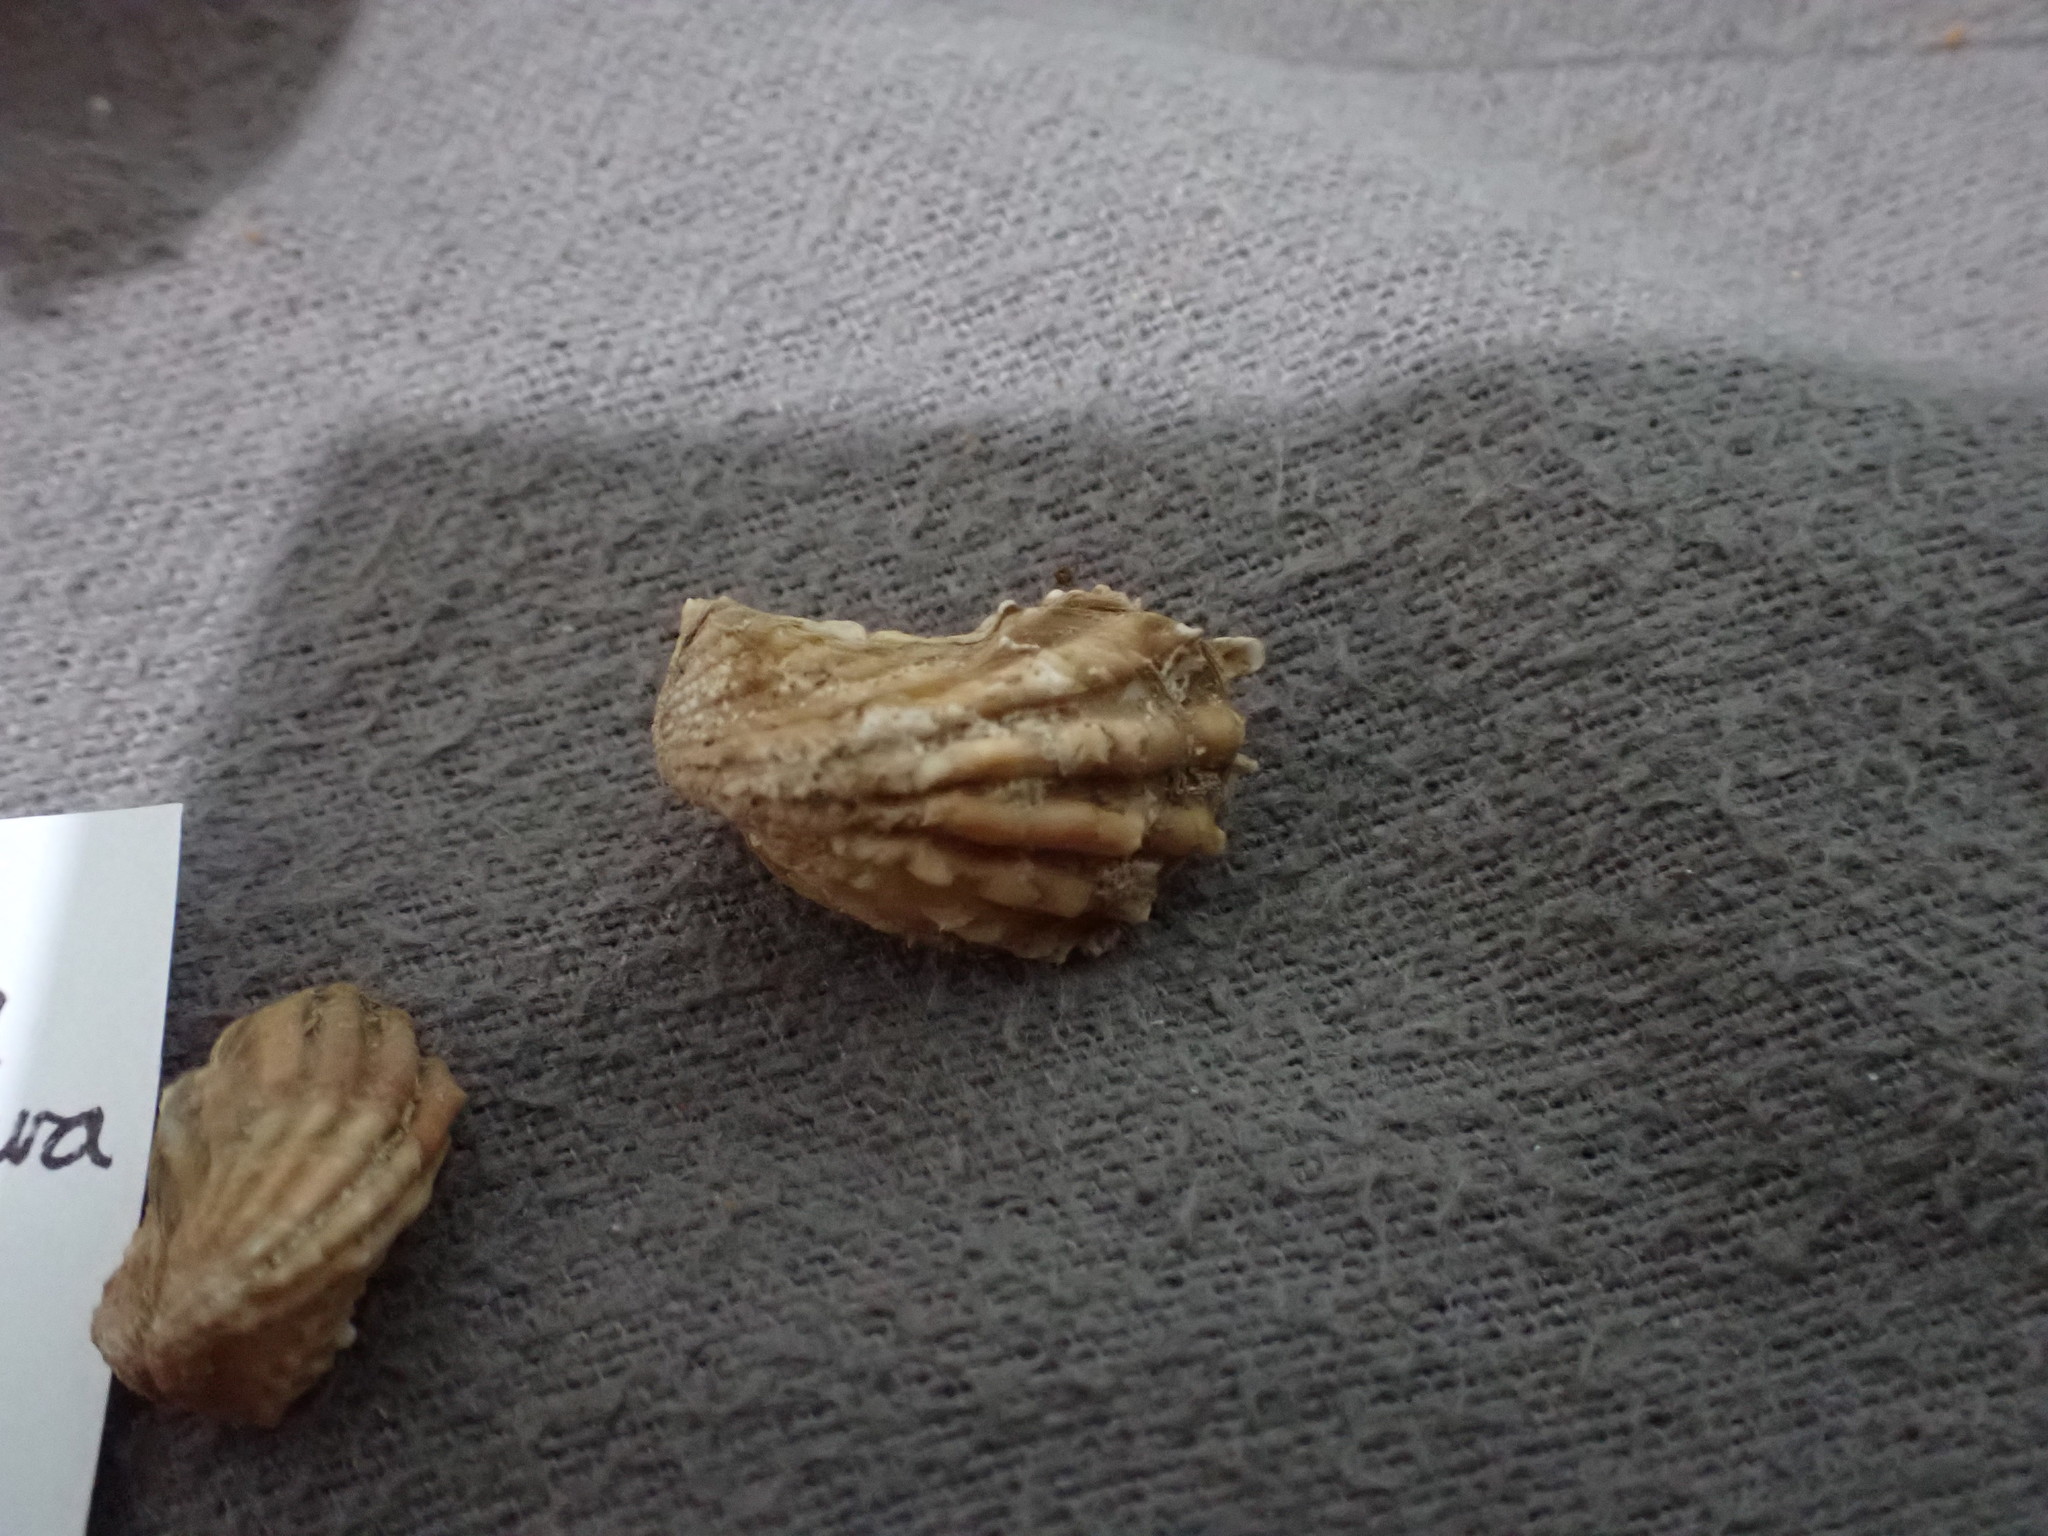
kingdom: Animalia
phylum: Mollusca
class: Bivalvia
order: Carditida
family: Carditidae
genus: Cardita
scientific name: Cardita distorta
